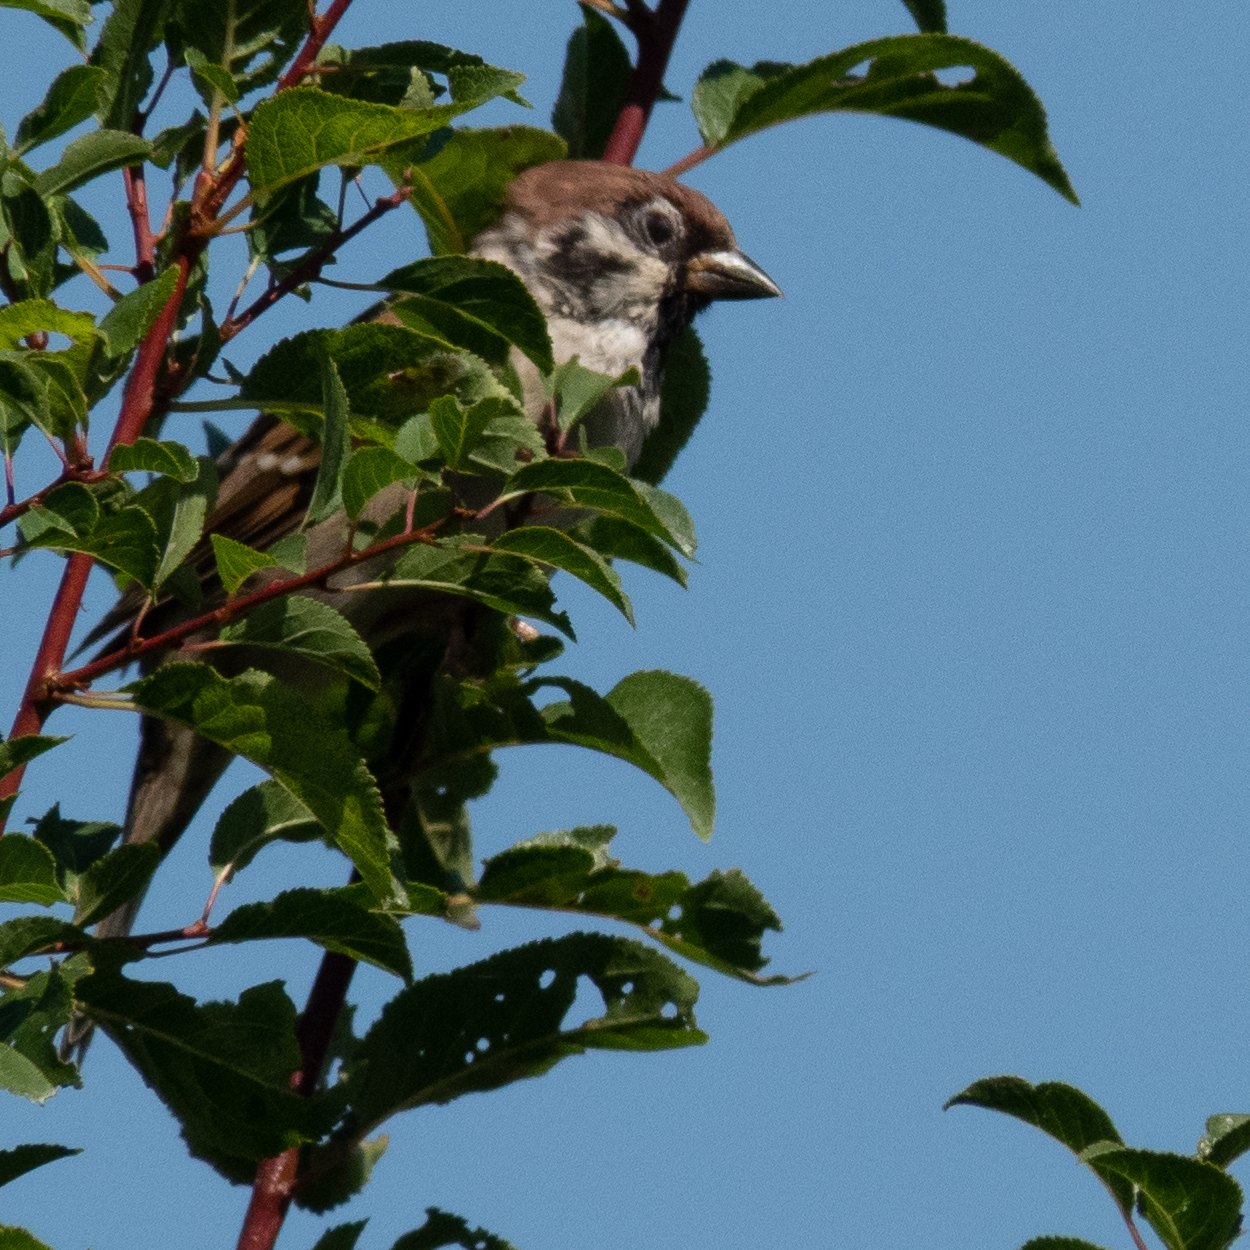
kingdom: Animalia
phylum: Chordata
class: Aves
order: Passeriformes
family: Passeridae
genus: Passer
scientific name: Passer montanus
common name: Eurasian tree sparrow
